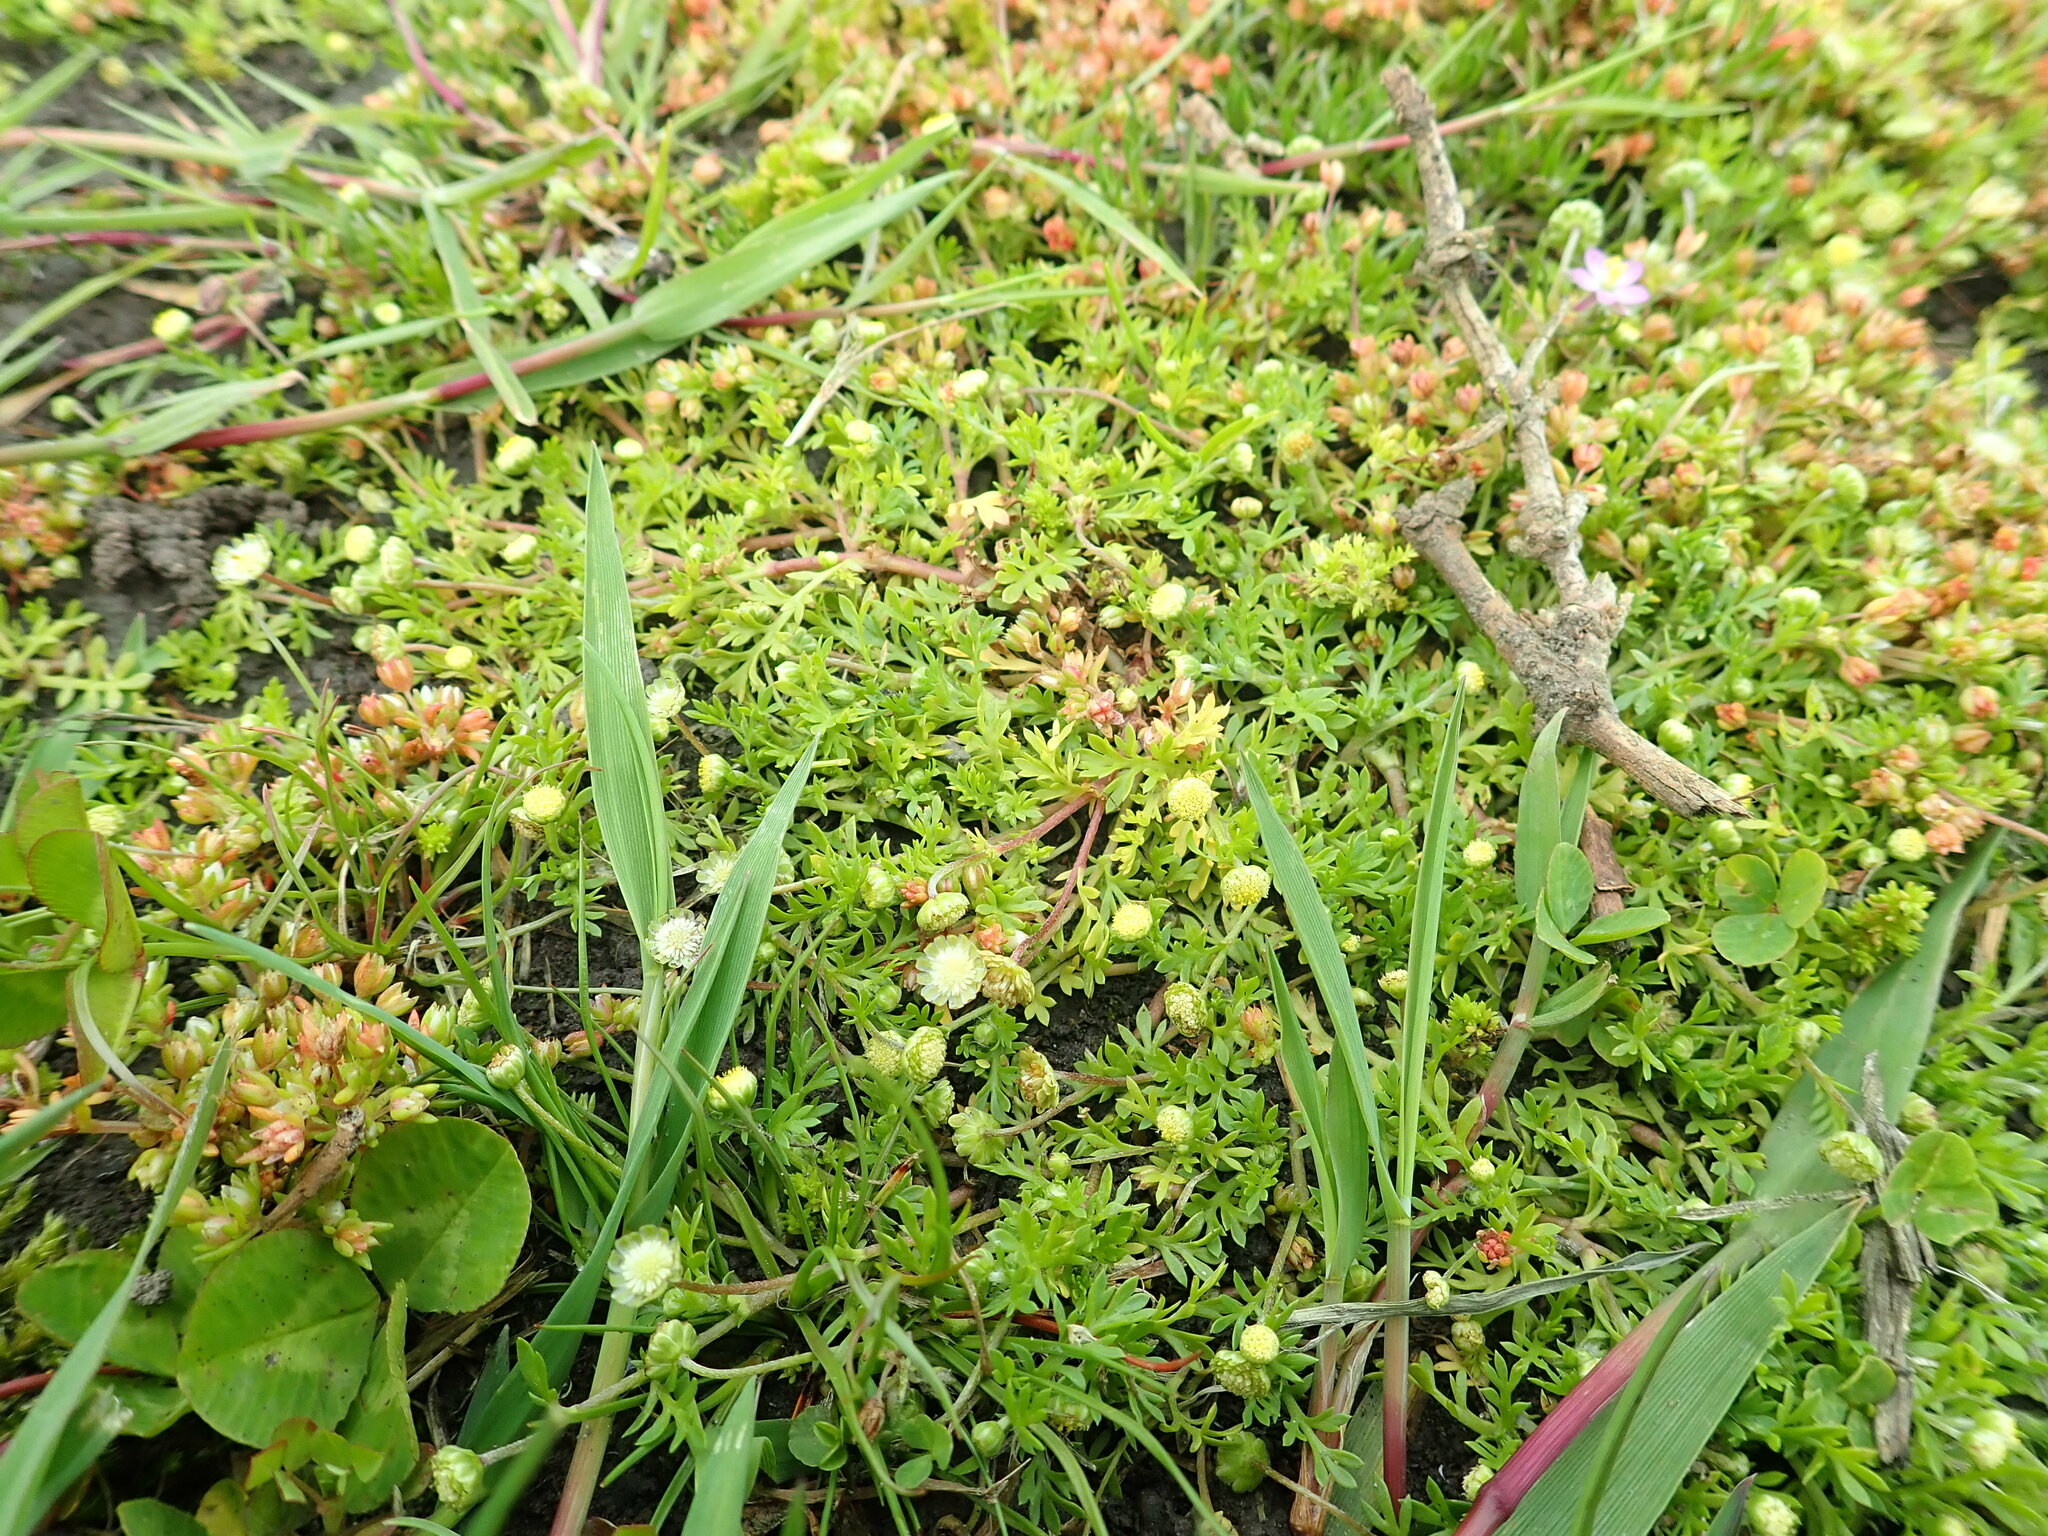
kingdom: Plantae
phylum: Tracheophyta
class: Magnoliopsida
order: Asterales
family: Asteraceae
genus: Cotula
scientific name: Cotula australis
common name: Australian waterbuttons
